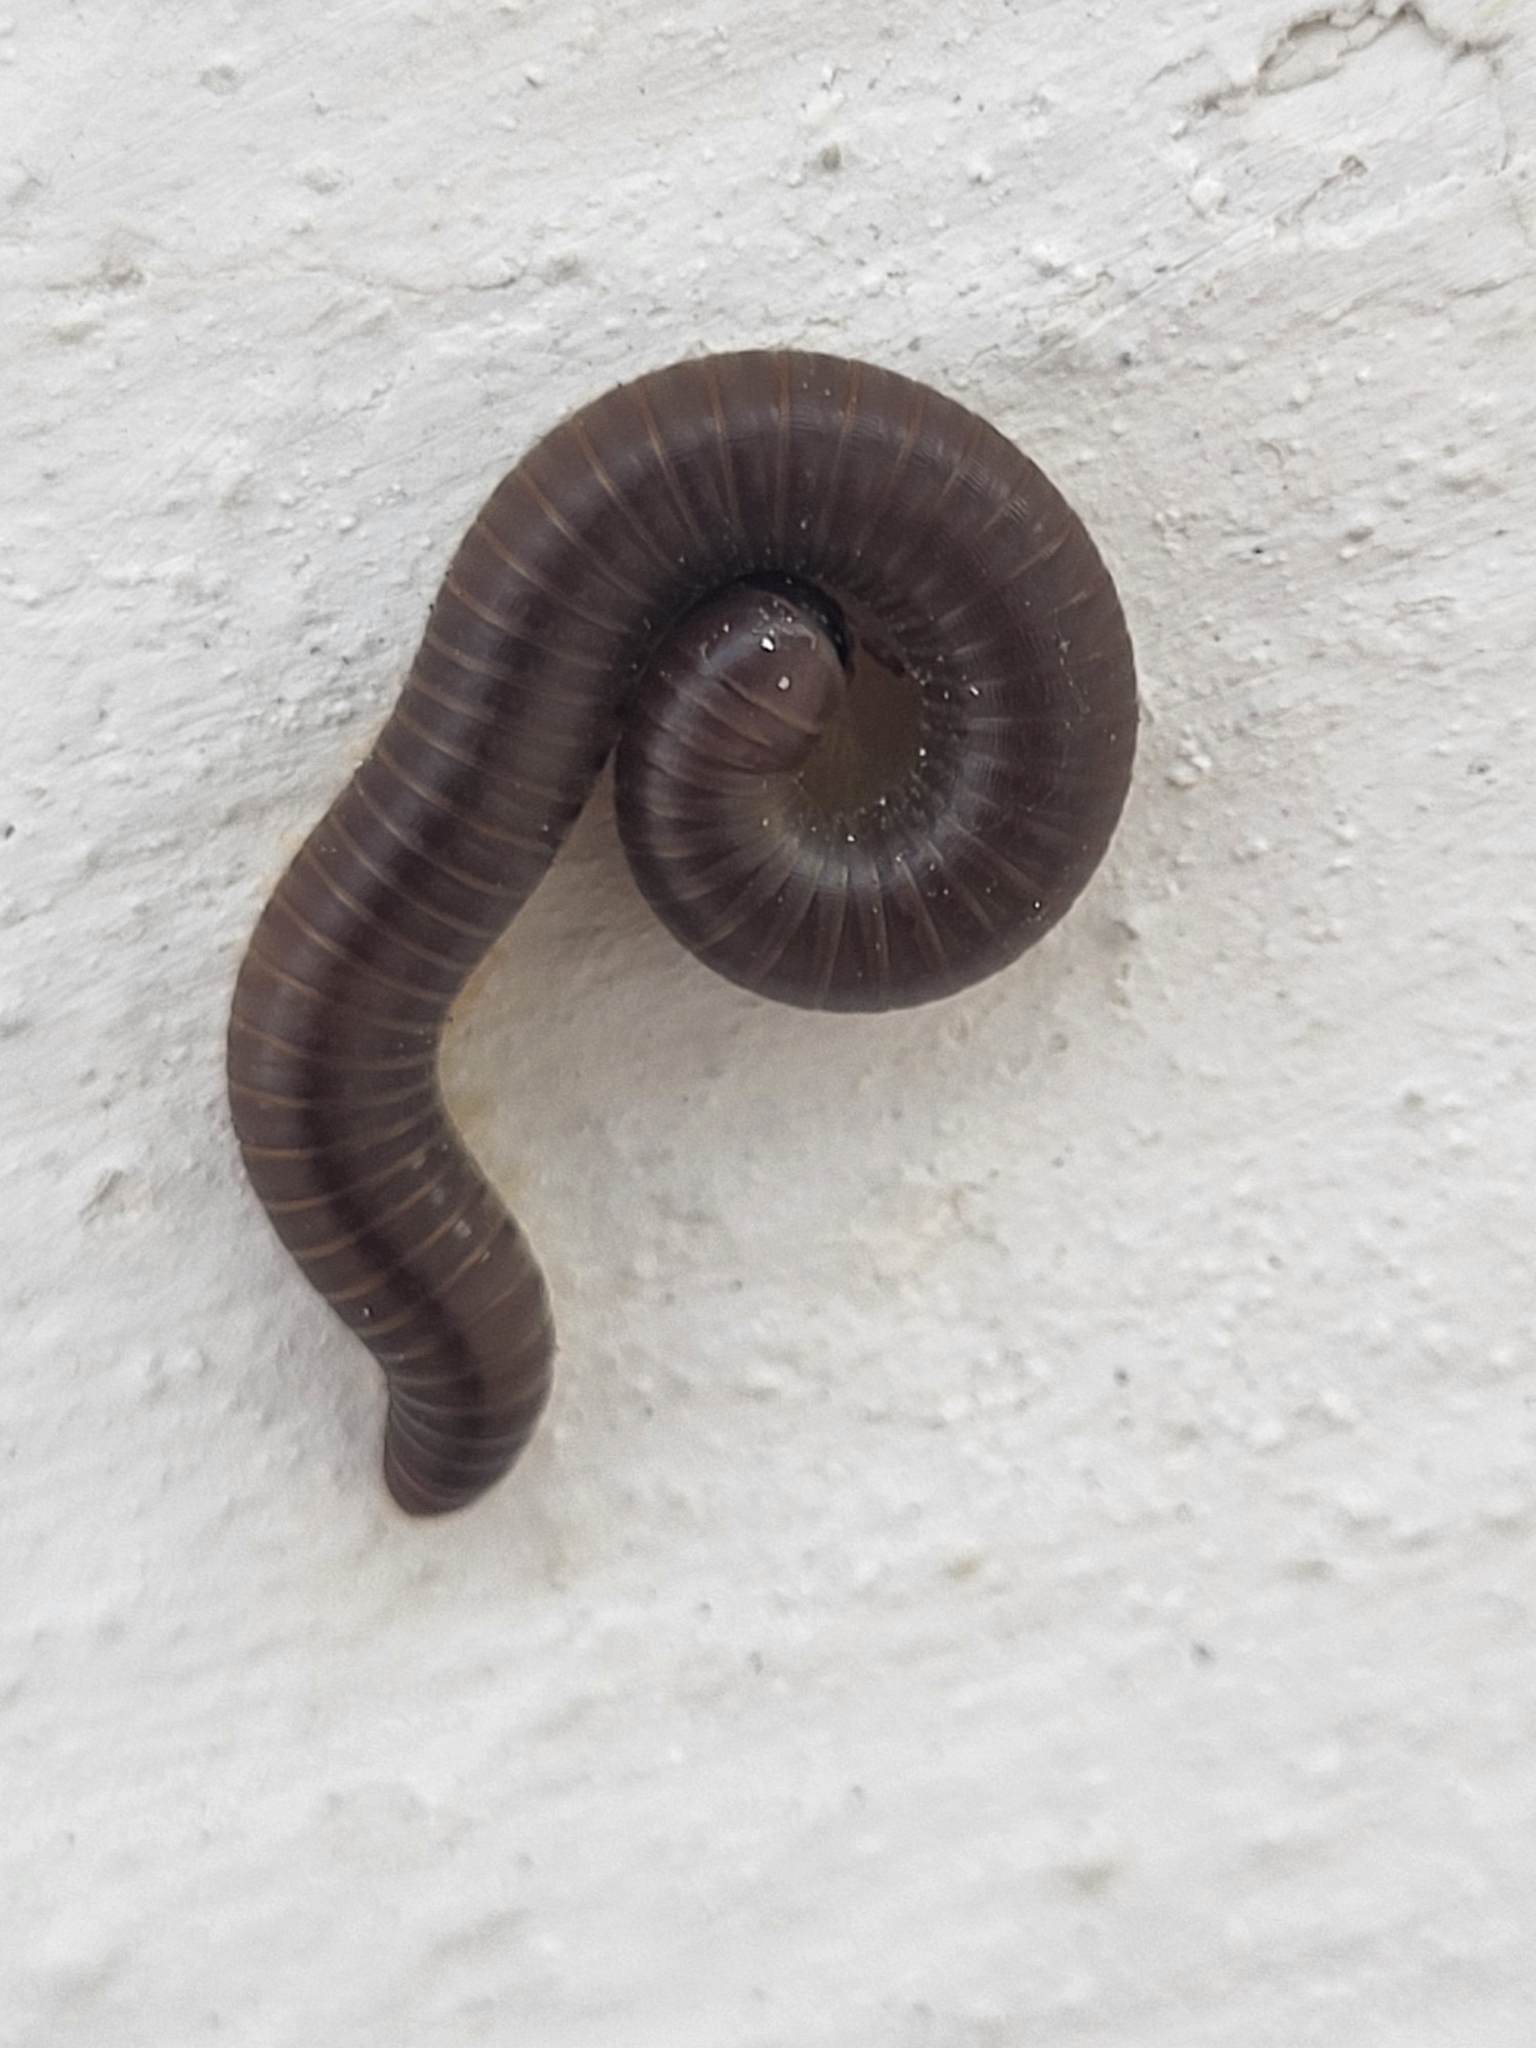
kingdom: Animalia
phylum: Arthropoda
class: Diplopoda
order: Julida
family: Julidae
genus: Pachyiulus
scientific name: Pachyiulus flavipes
